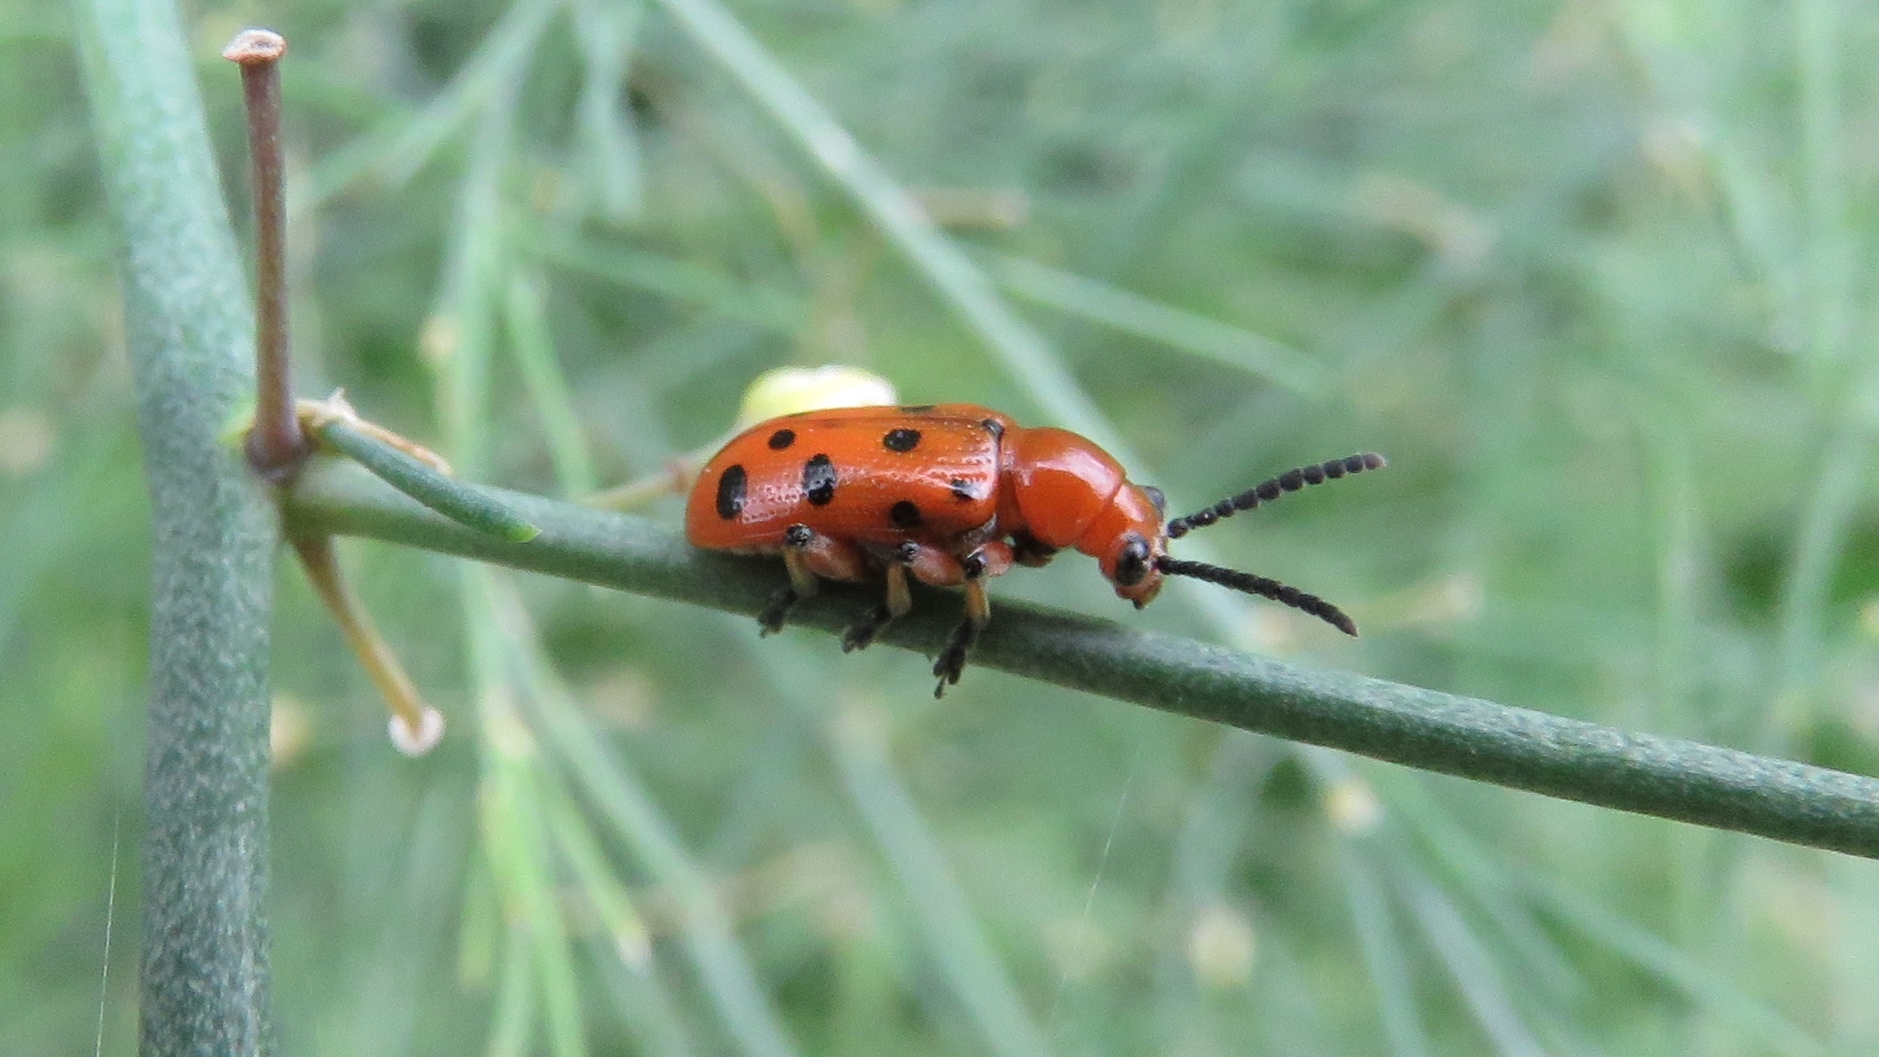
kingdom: Animalia
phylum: Arthropoda
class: Insecta
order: Coleoptera
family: Chrysomelidae
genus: Crioceris
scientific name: Crioceris duodecimpunctata
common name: Twelve-spotted asparagus beetle
